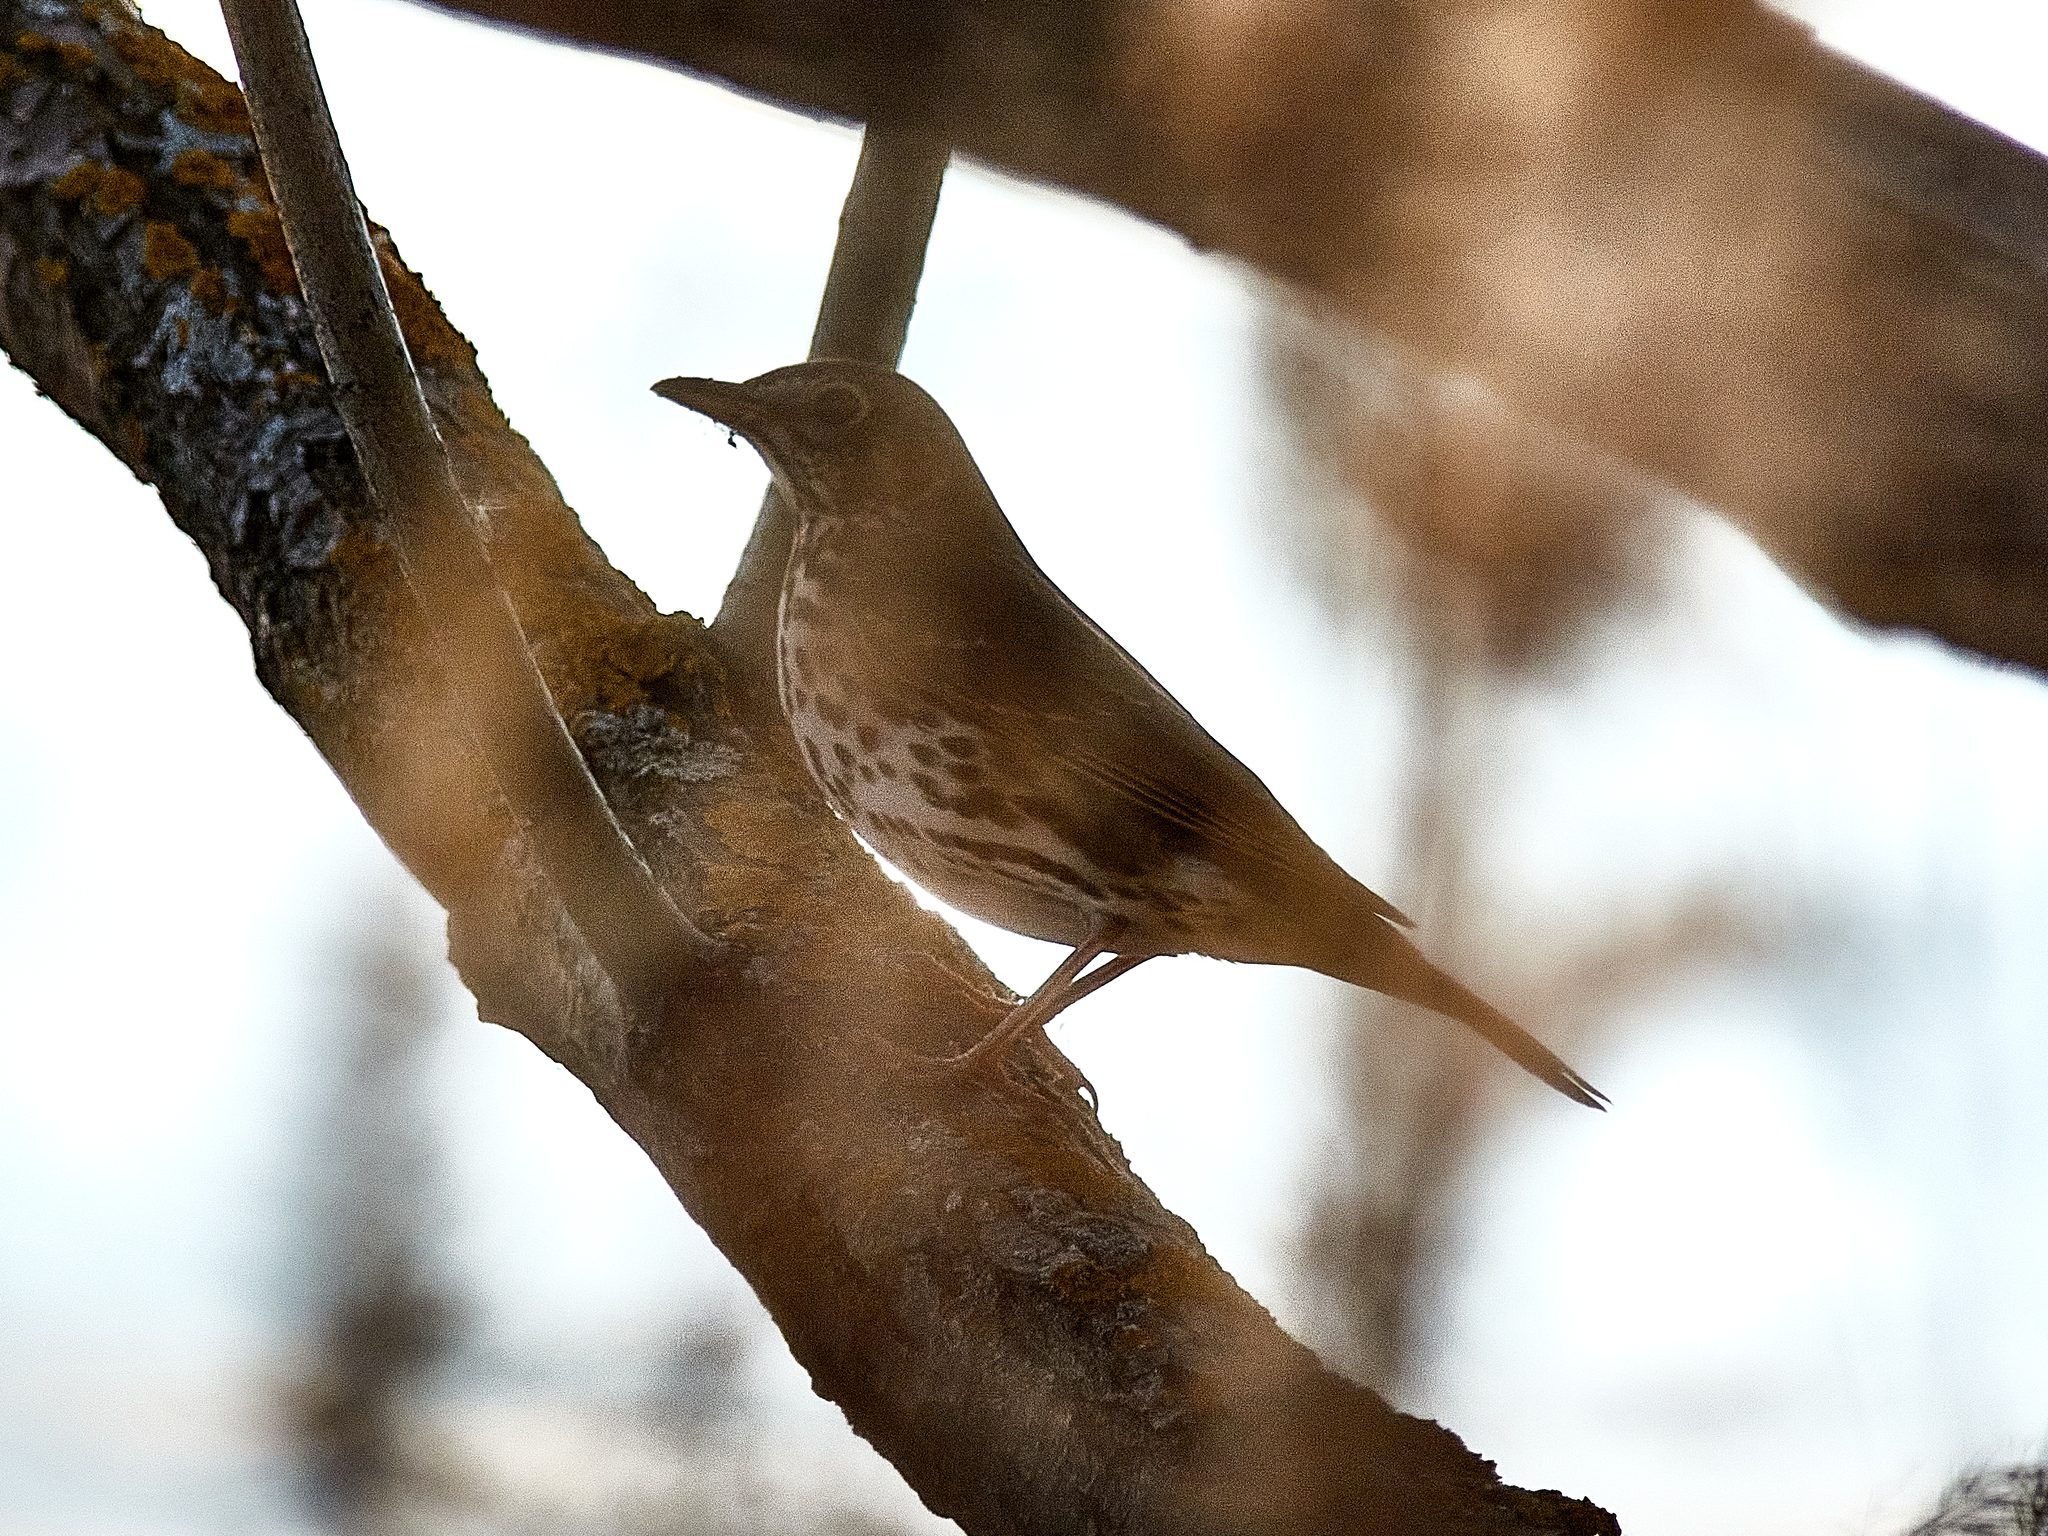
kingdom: Animalia
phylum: Chordata
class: Aves
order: Passeriformes
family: Turdidae
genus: Turdus
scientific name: Turdus philomelos
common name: Song thrush
